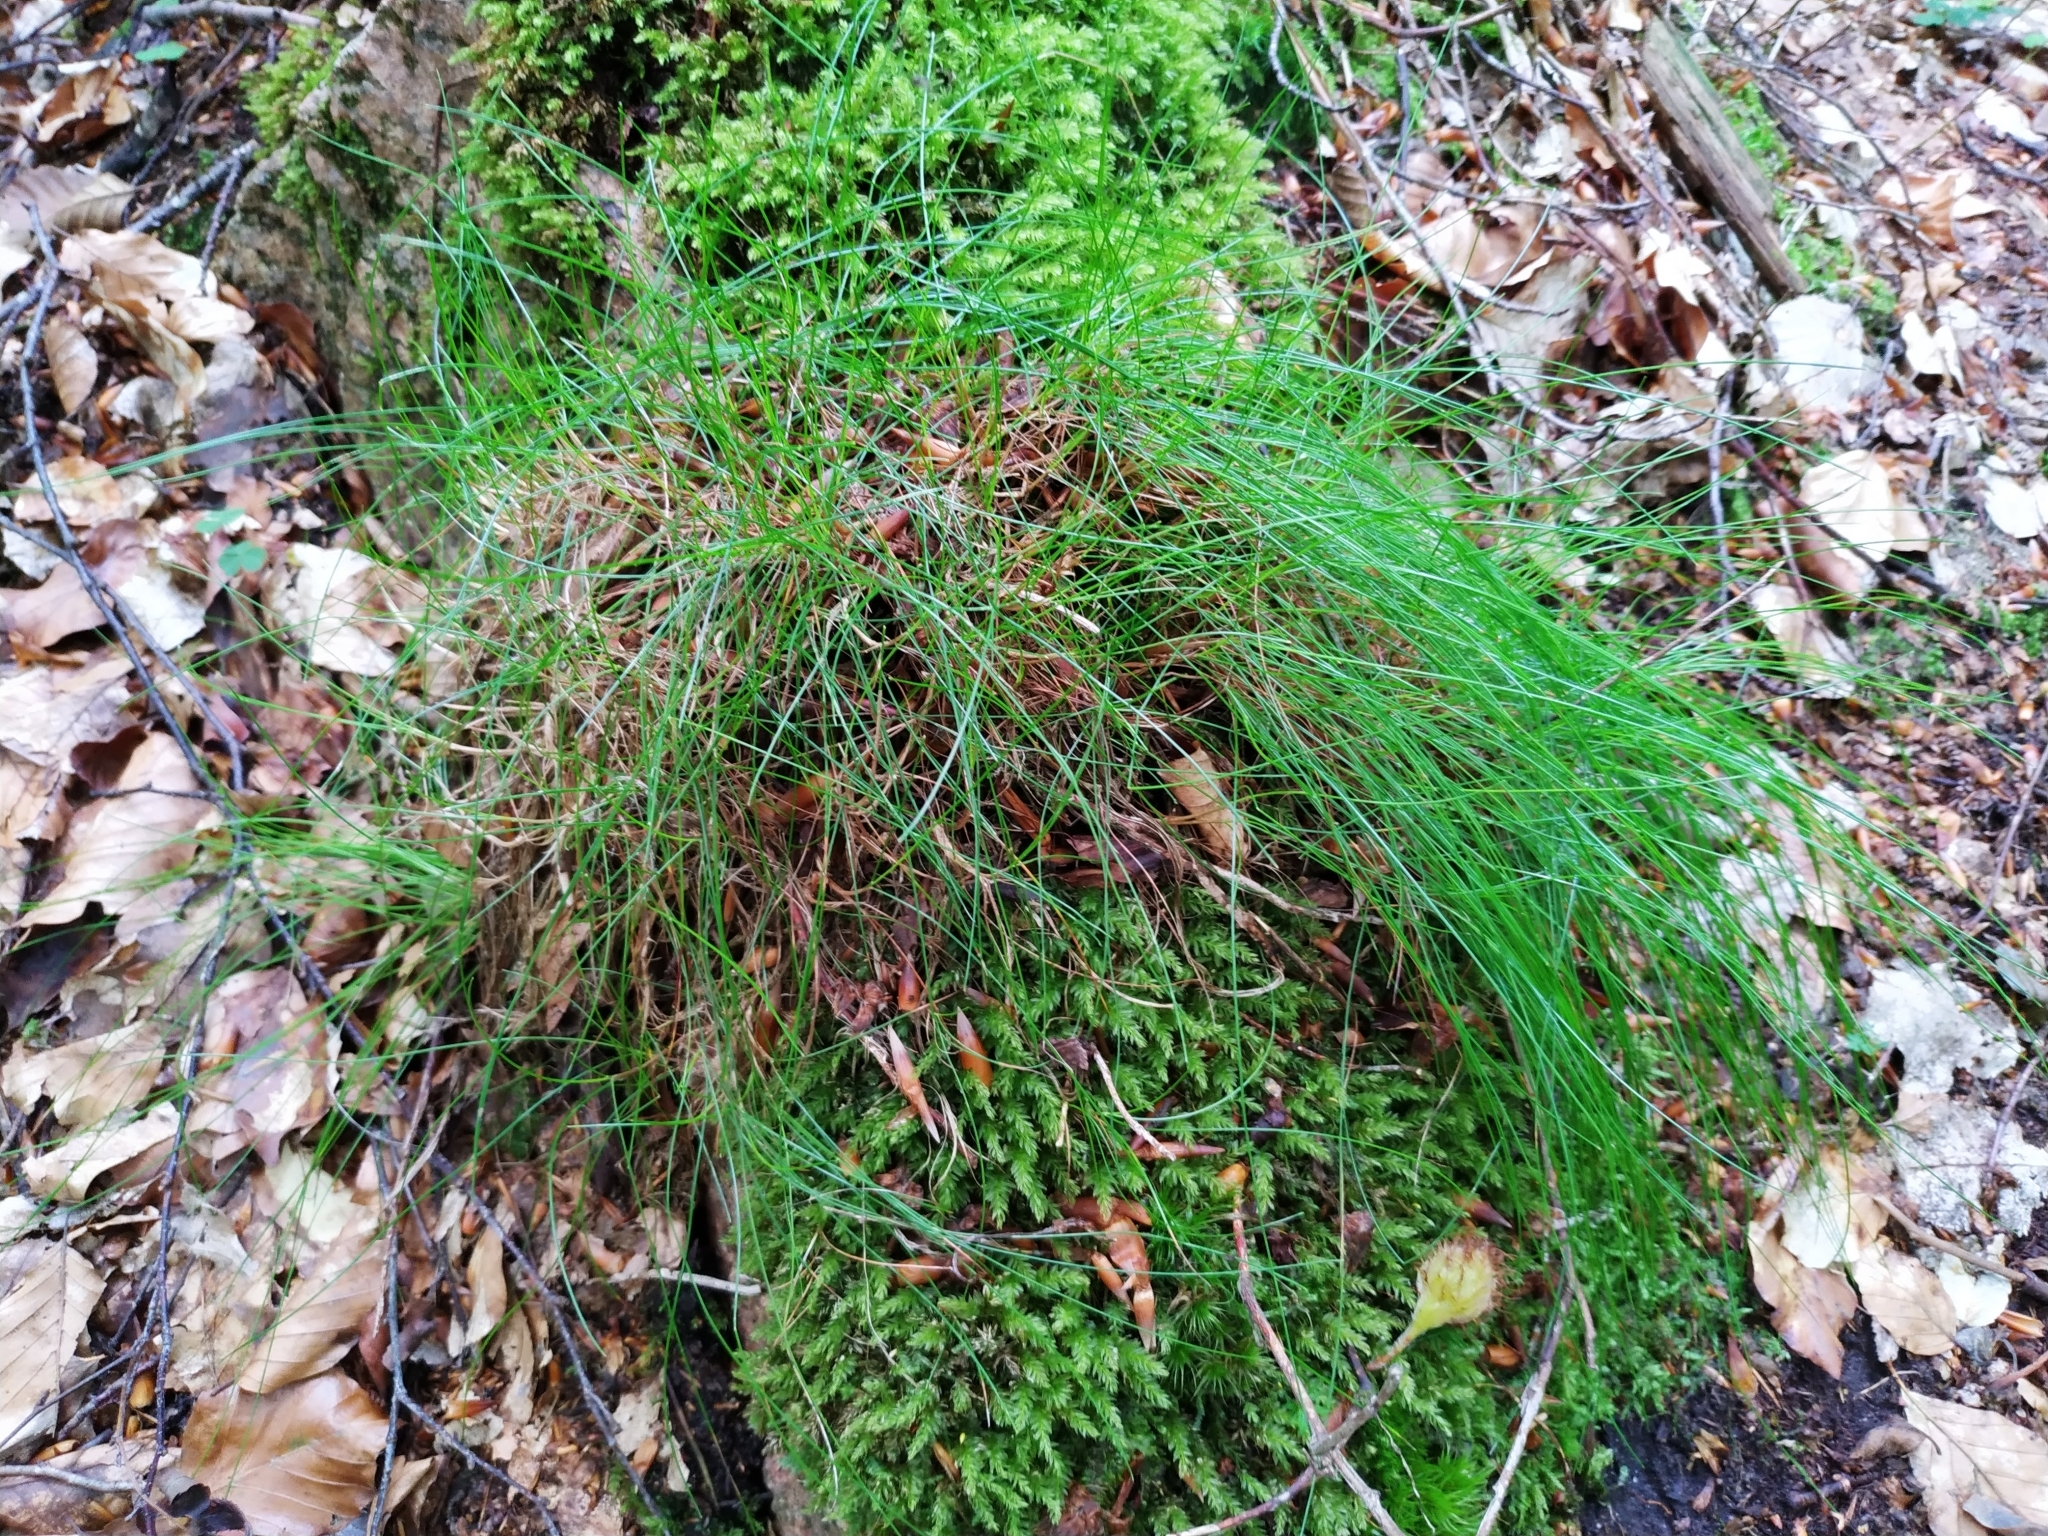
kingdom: Plantae
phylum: Tracheophyta
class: Liliopsida
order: Poales
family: Poaceae
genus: Avenella
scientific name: Avenella flexuosa
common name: Wavy hairgrass
